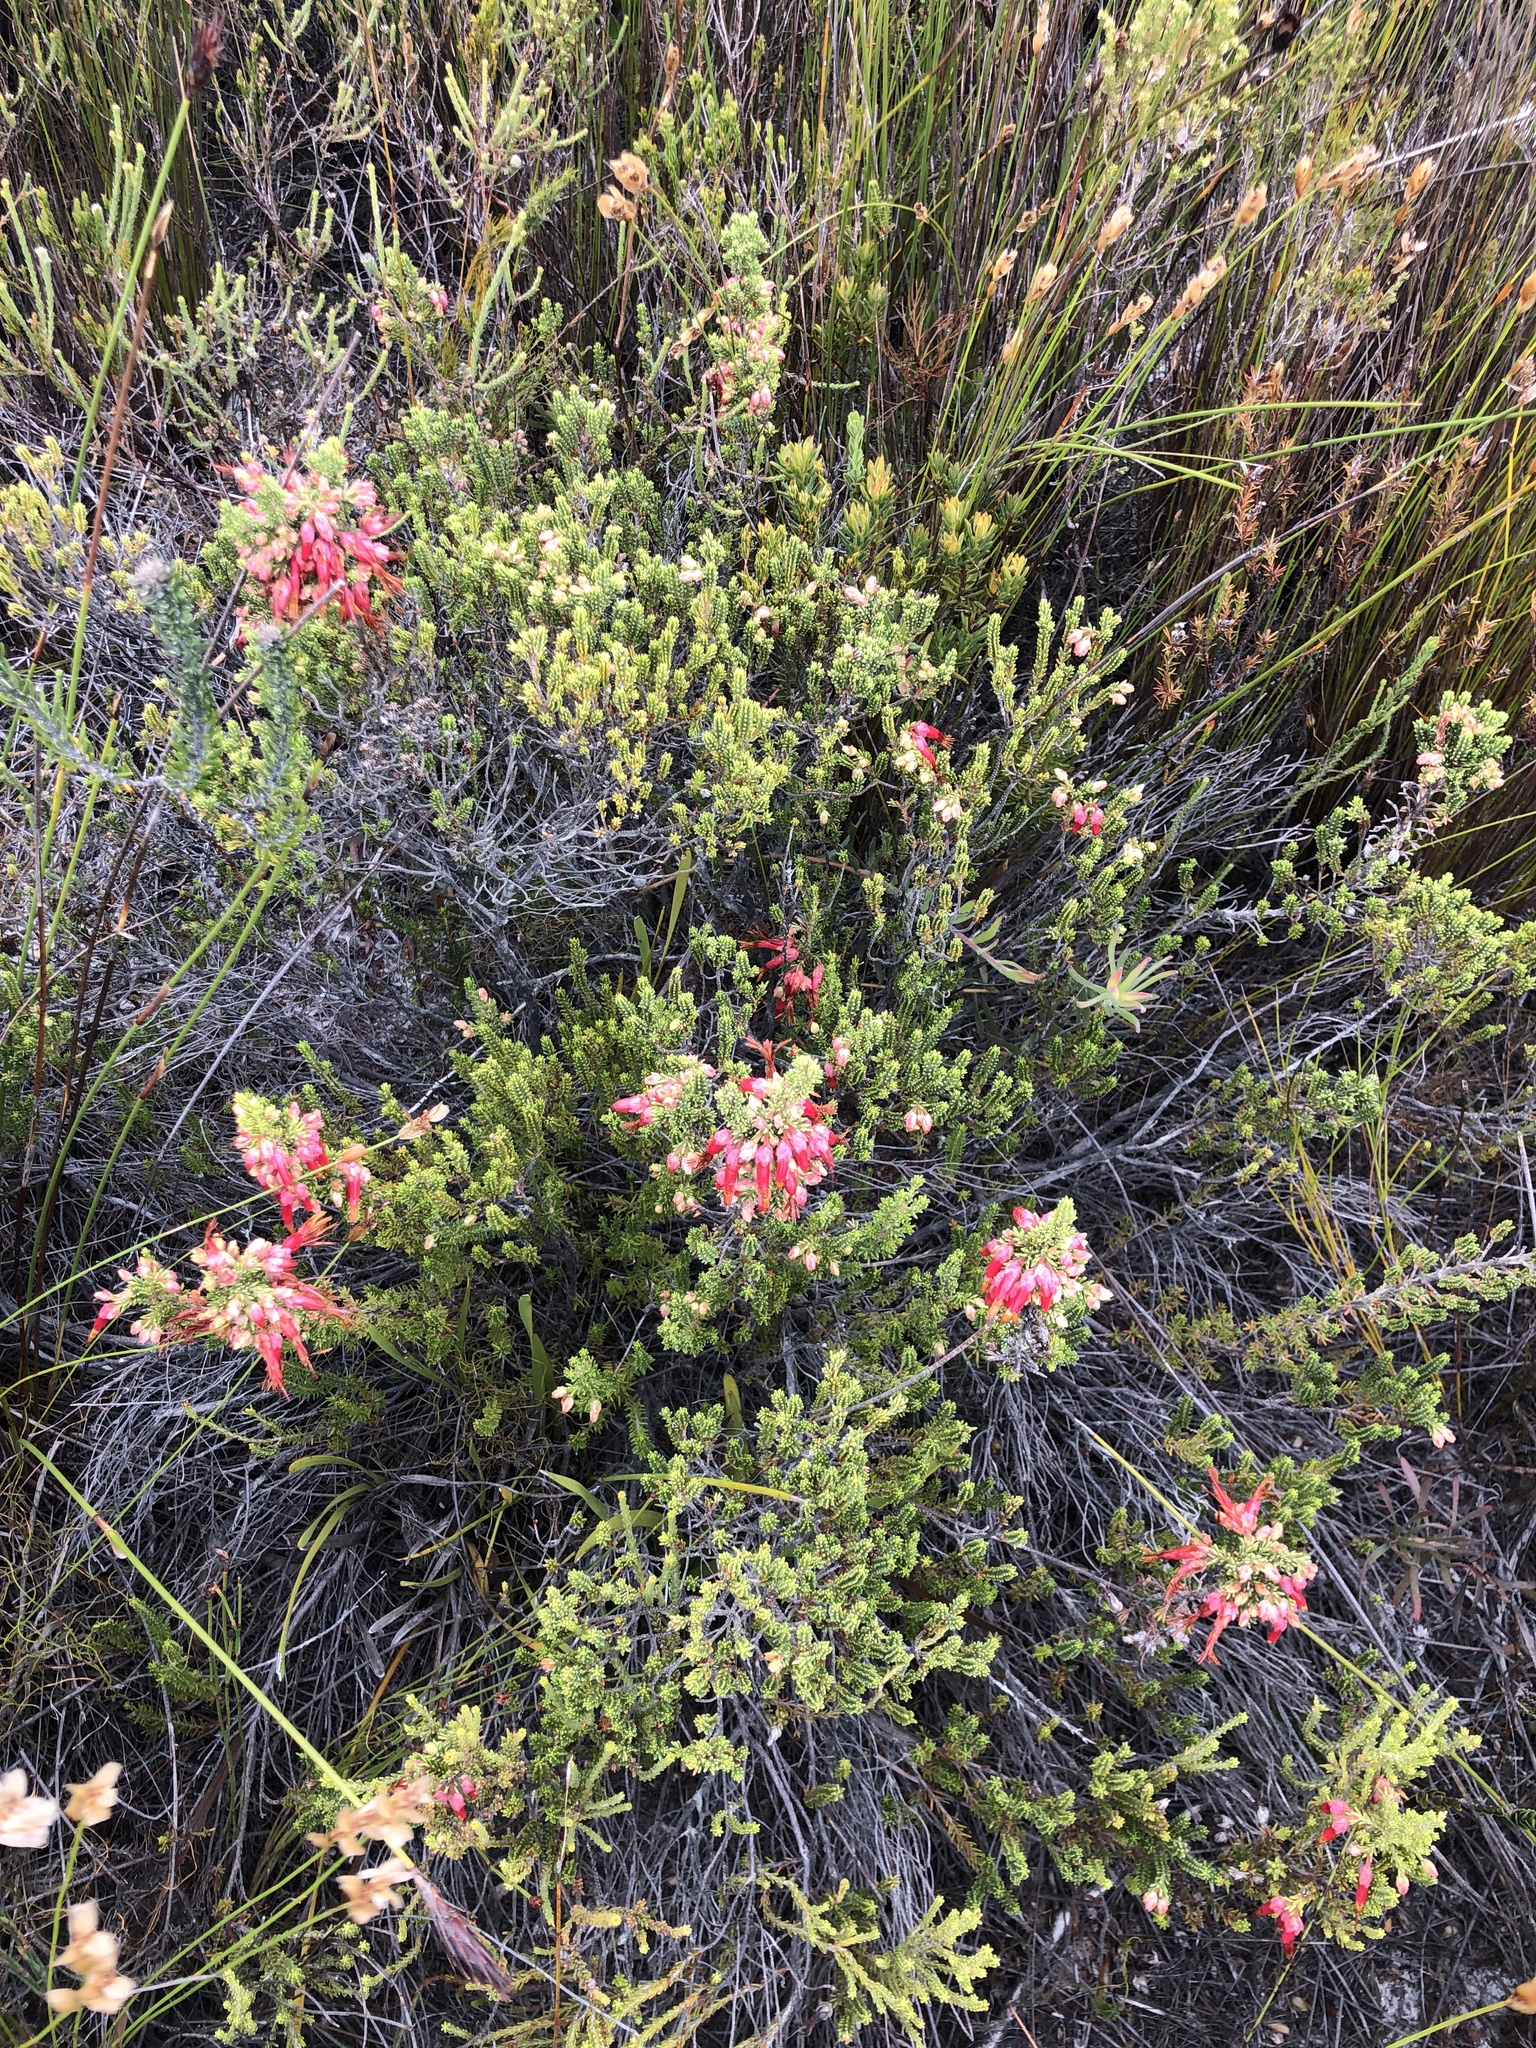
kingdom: Plantae
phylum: Tracheophyta
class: Magnoliopsida
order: Ericales
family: Ericaceae
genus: Erica
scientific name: Erica monadelphia
